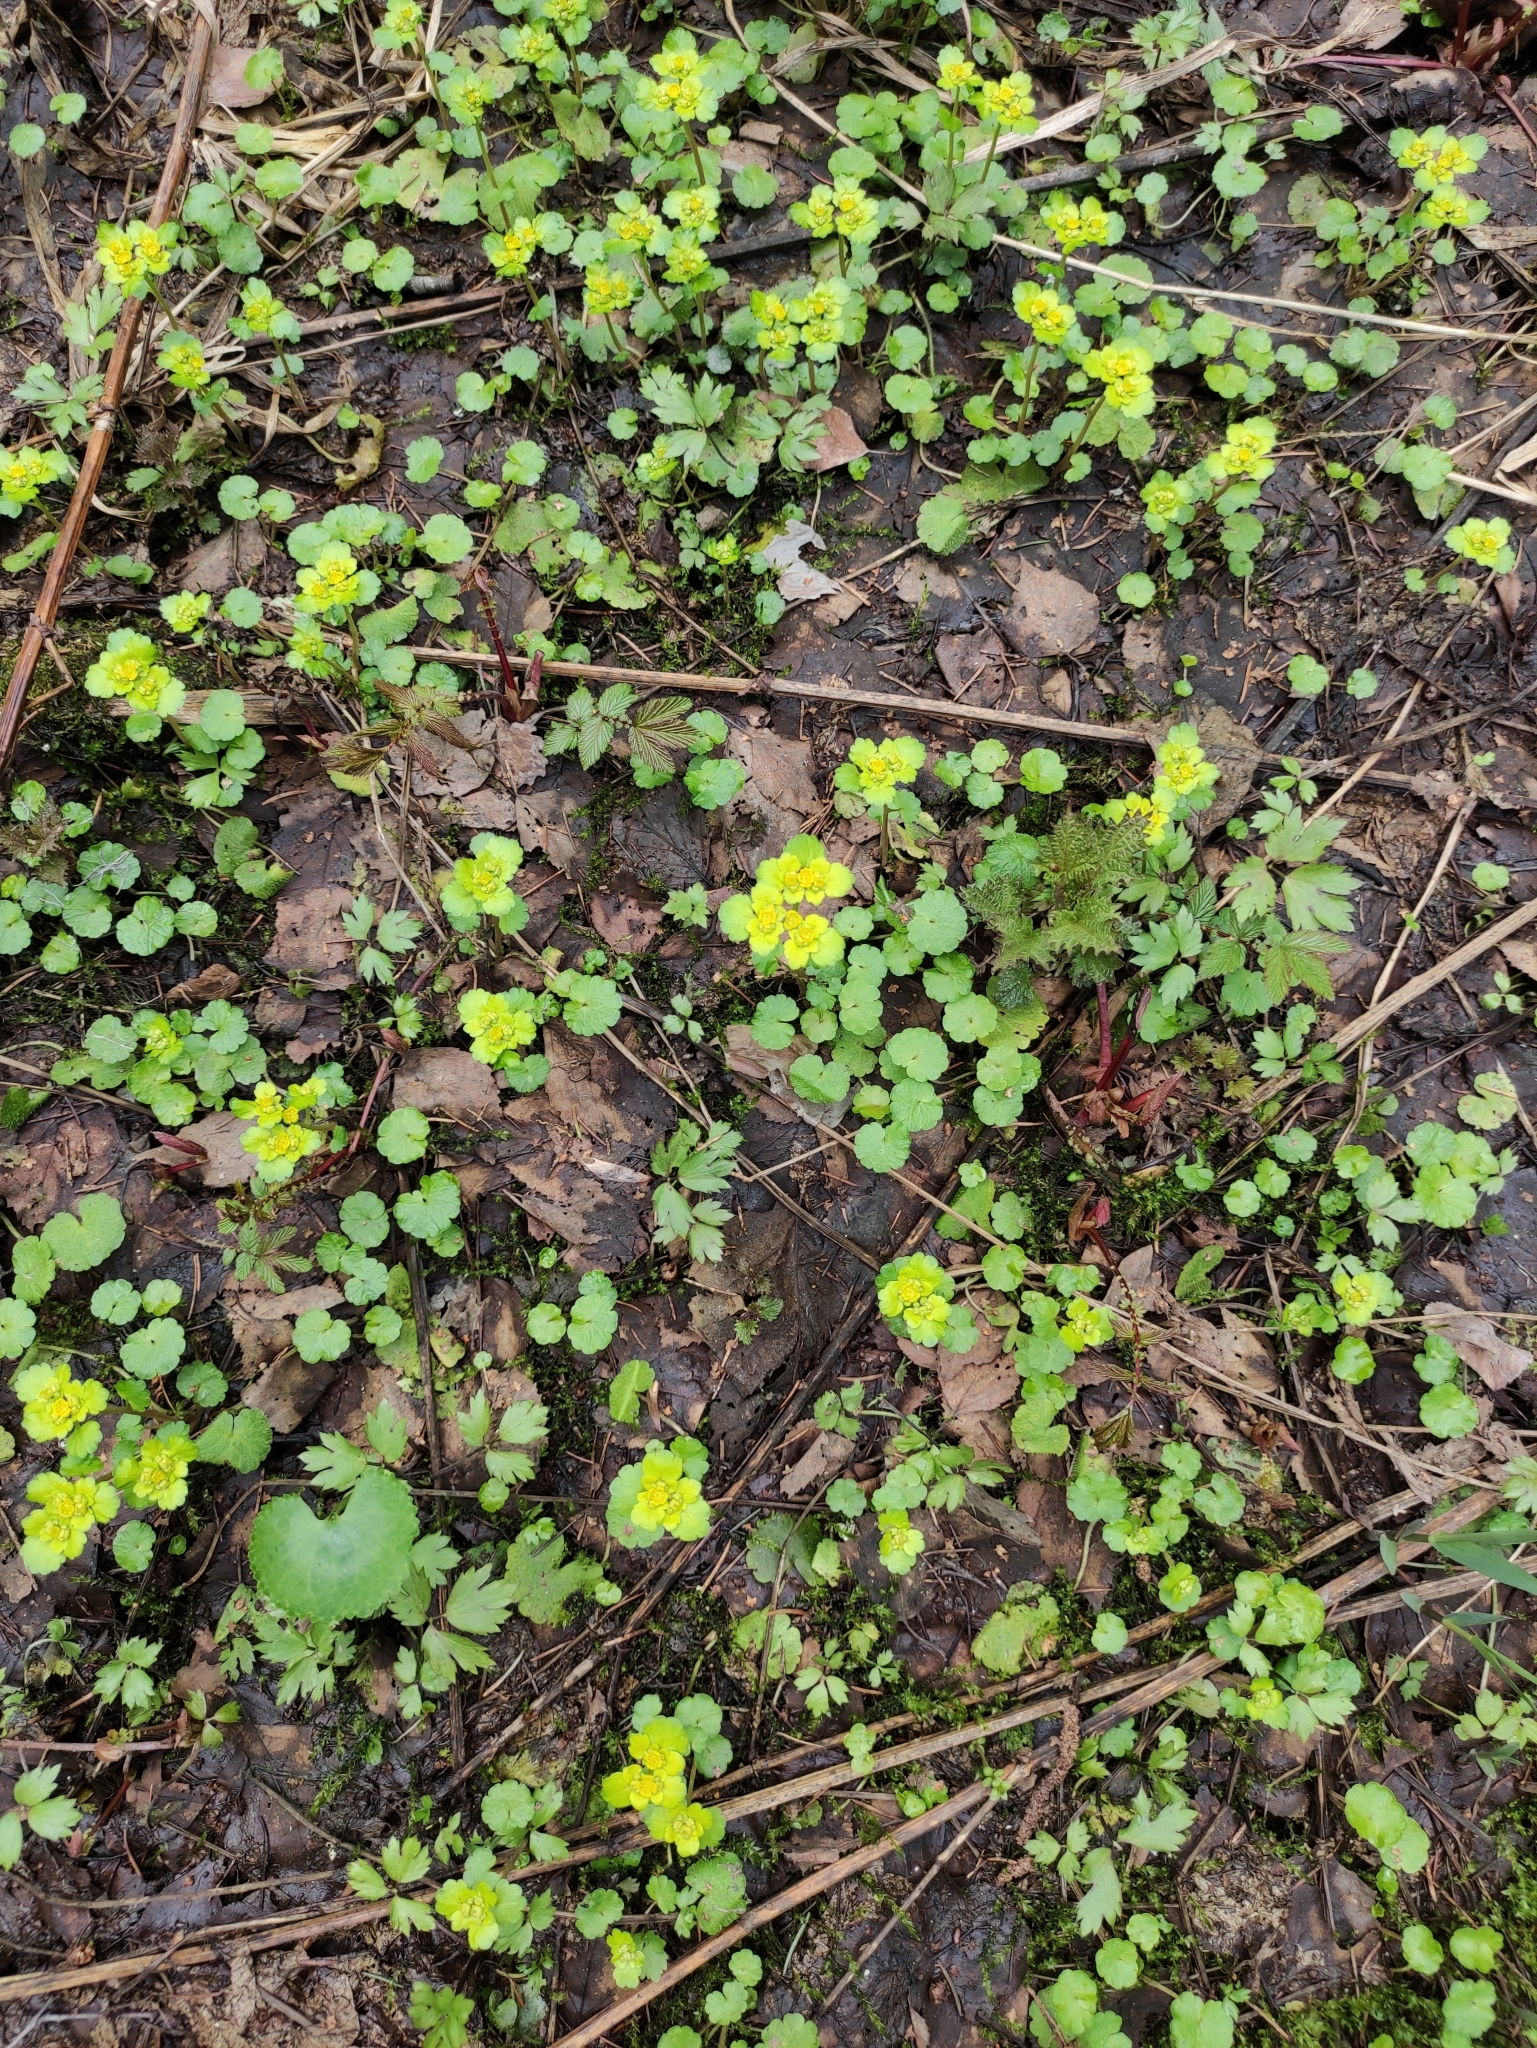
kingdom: Plantae
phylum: Tracheophyta
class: Magnoliopsida
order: Saxifragales
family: Saxifragaceae
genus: Chrysosplenium
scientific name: Chrysosplenium alternifolium
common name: Alternate-leaved golden-saxifrage
